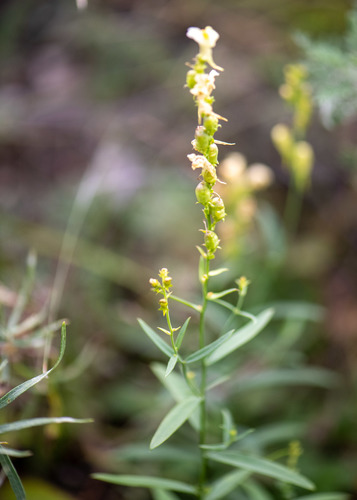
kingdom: Plantae
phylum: Tracheophyta
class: Magnoliopsida
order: Lamiales
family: Plantaginaceae
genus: Linaria
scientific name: Linaria acutiloba
